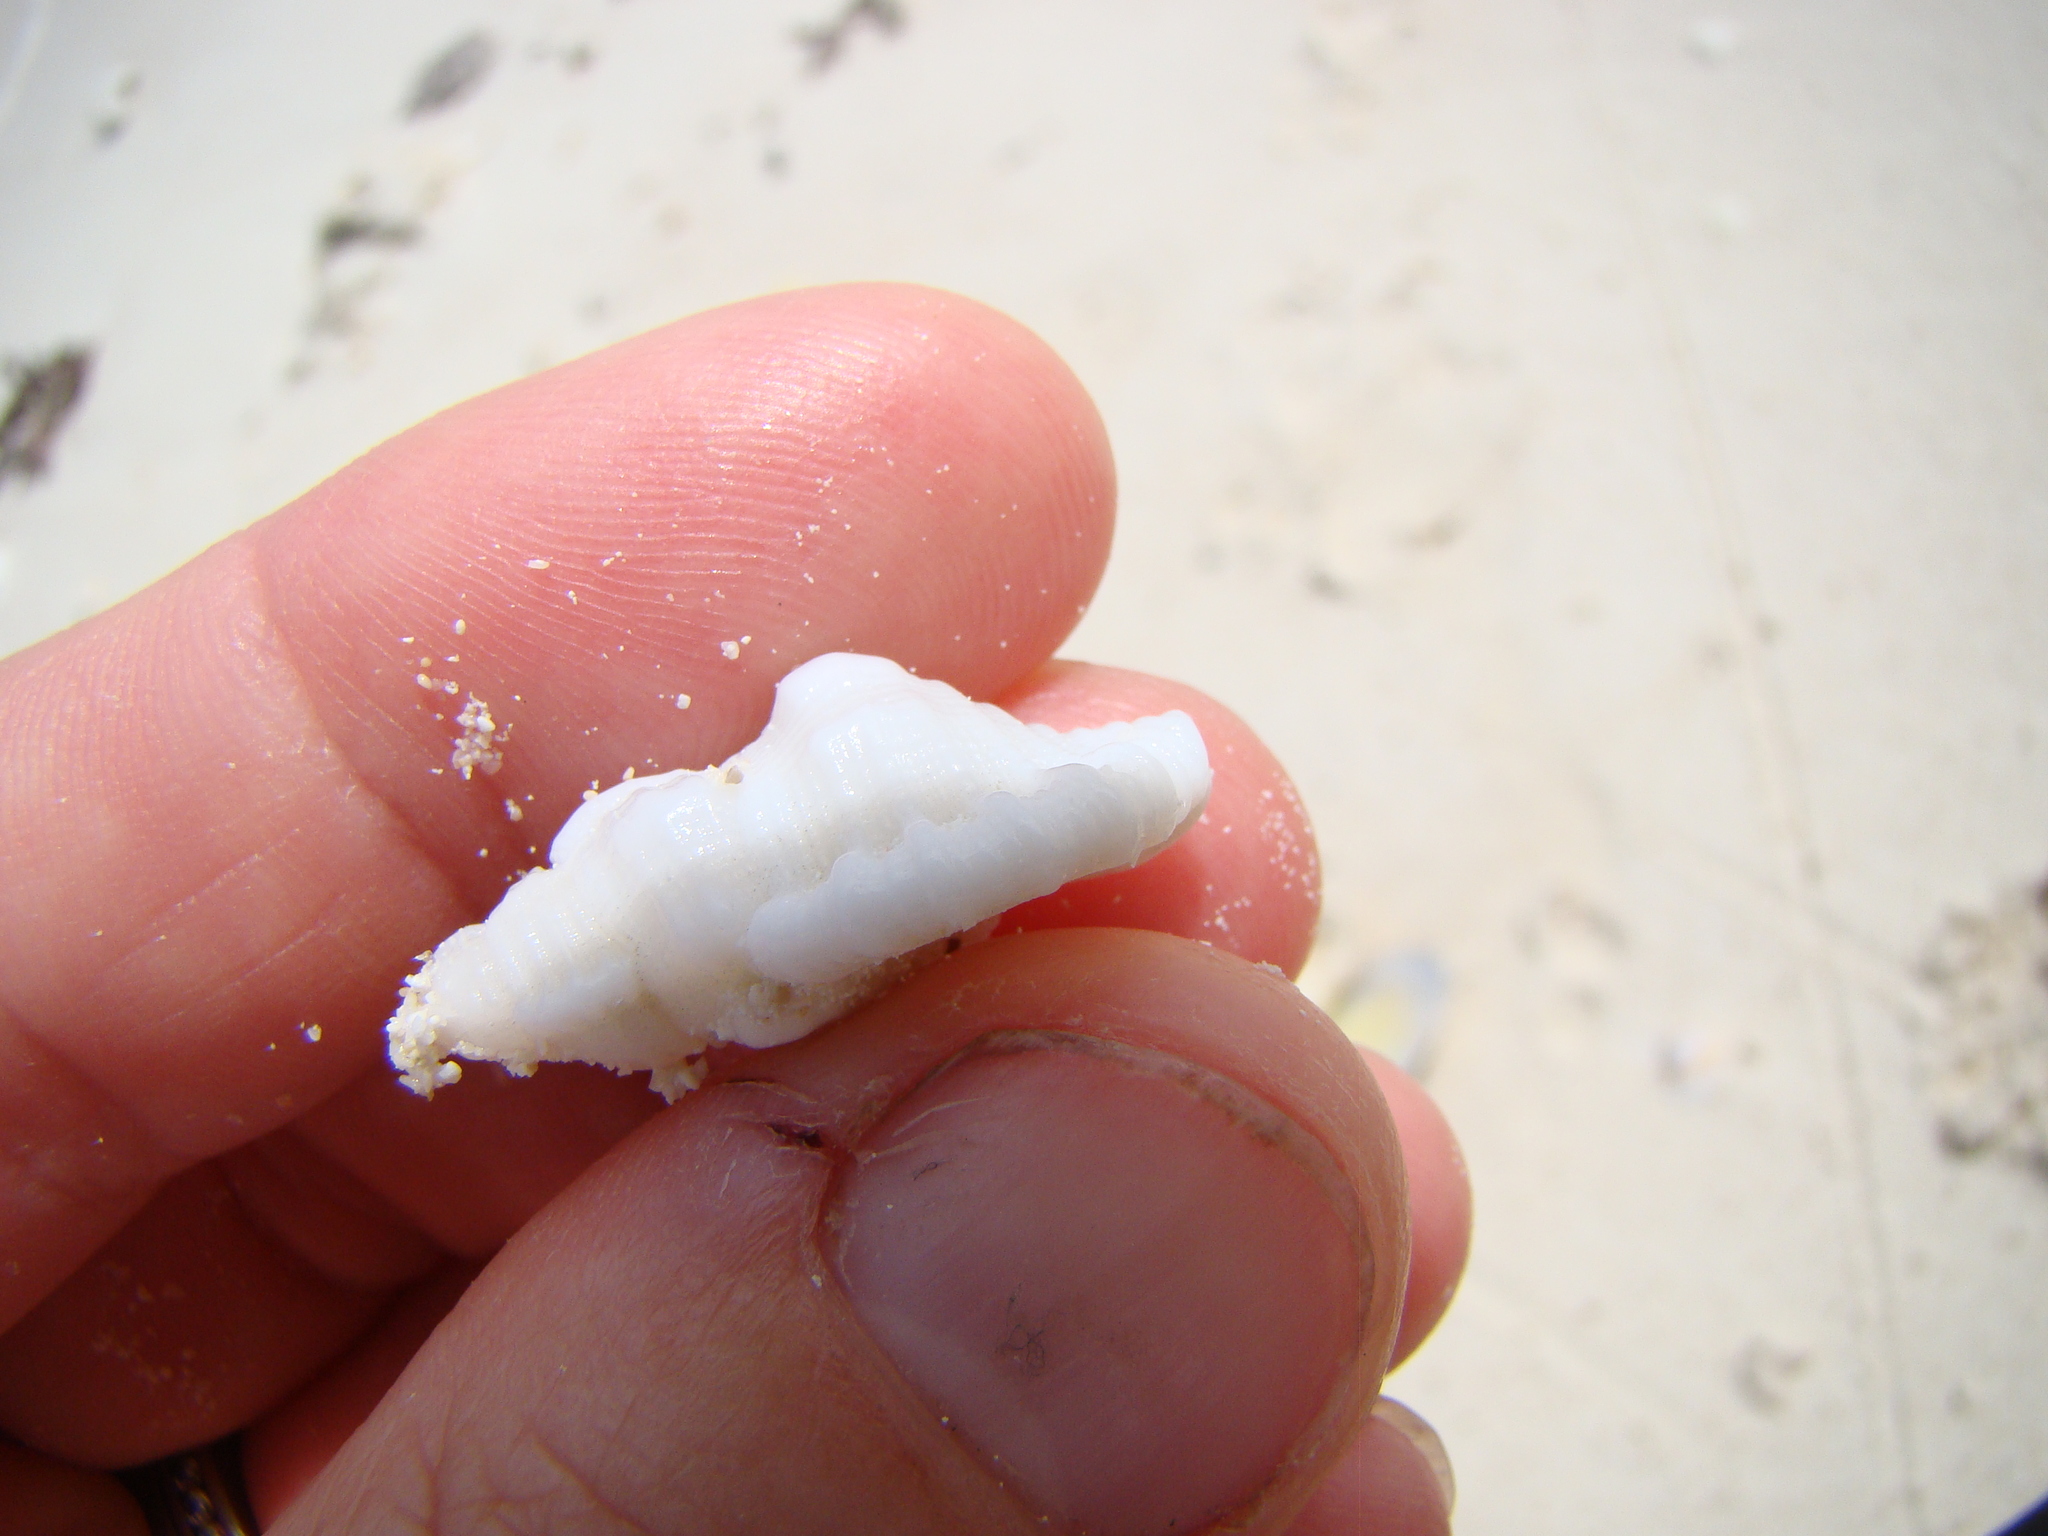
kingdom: Animalia
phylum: Mollusca
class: Gastropoda
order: Littorinimorpha
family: Cymatiidae
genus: Monoplex
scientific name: Monoplex mundus
